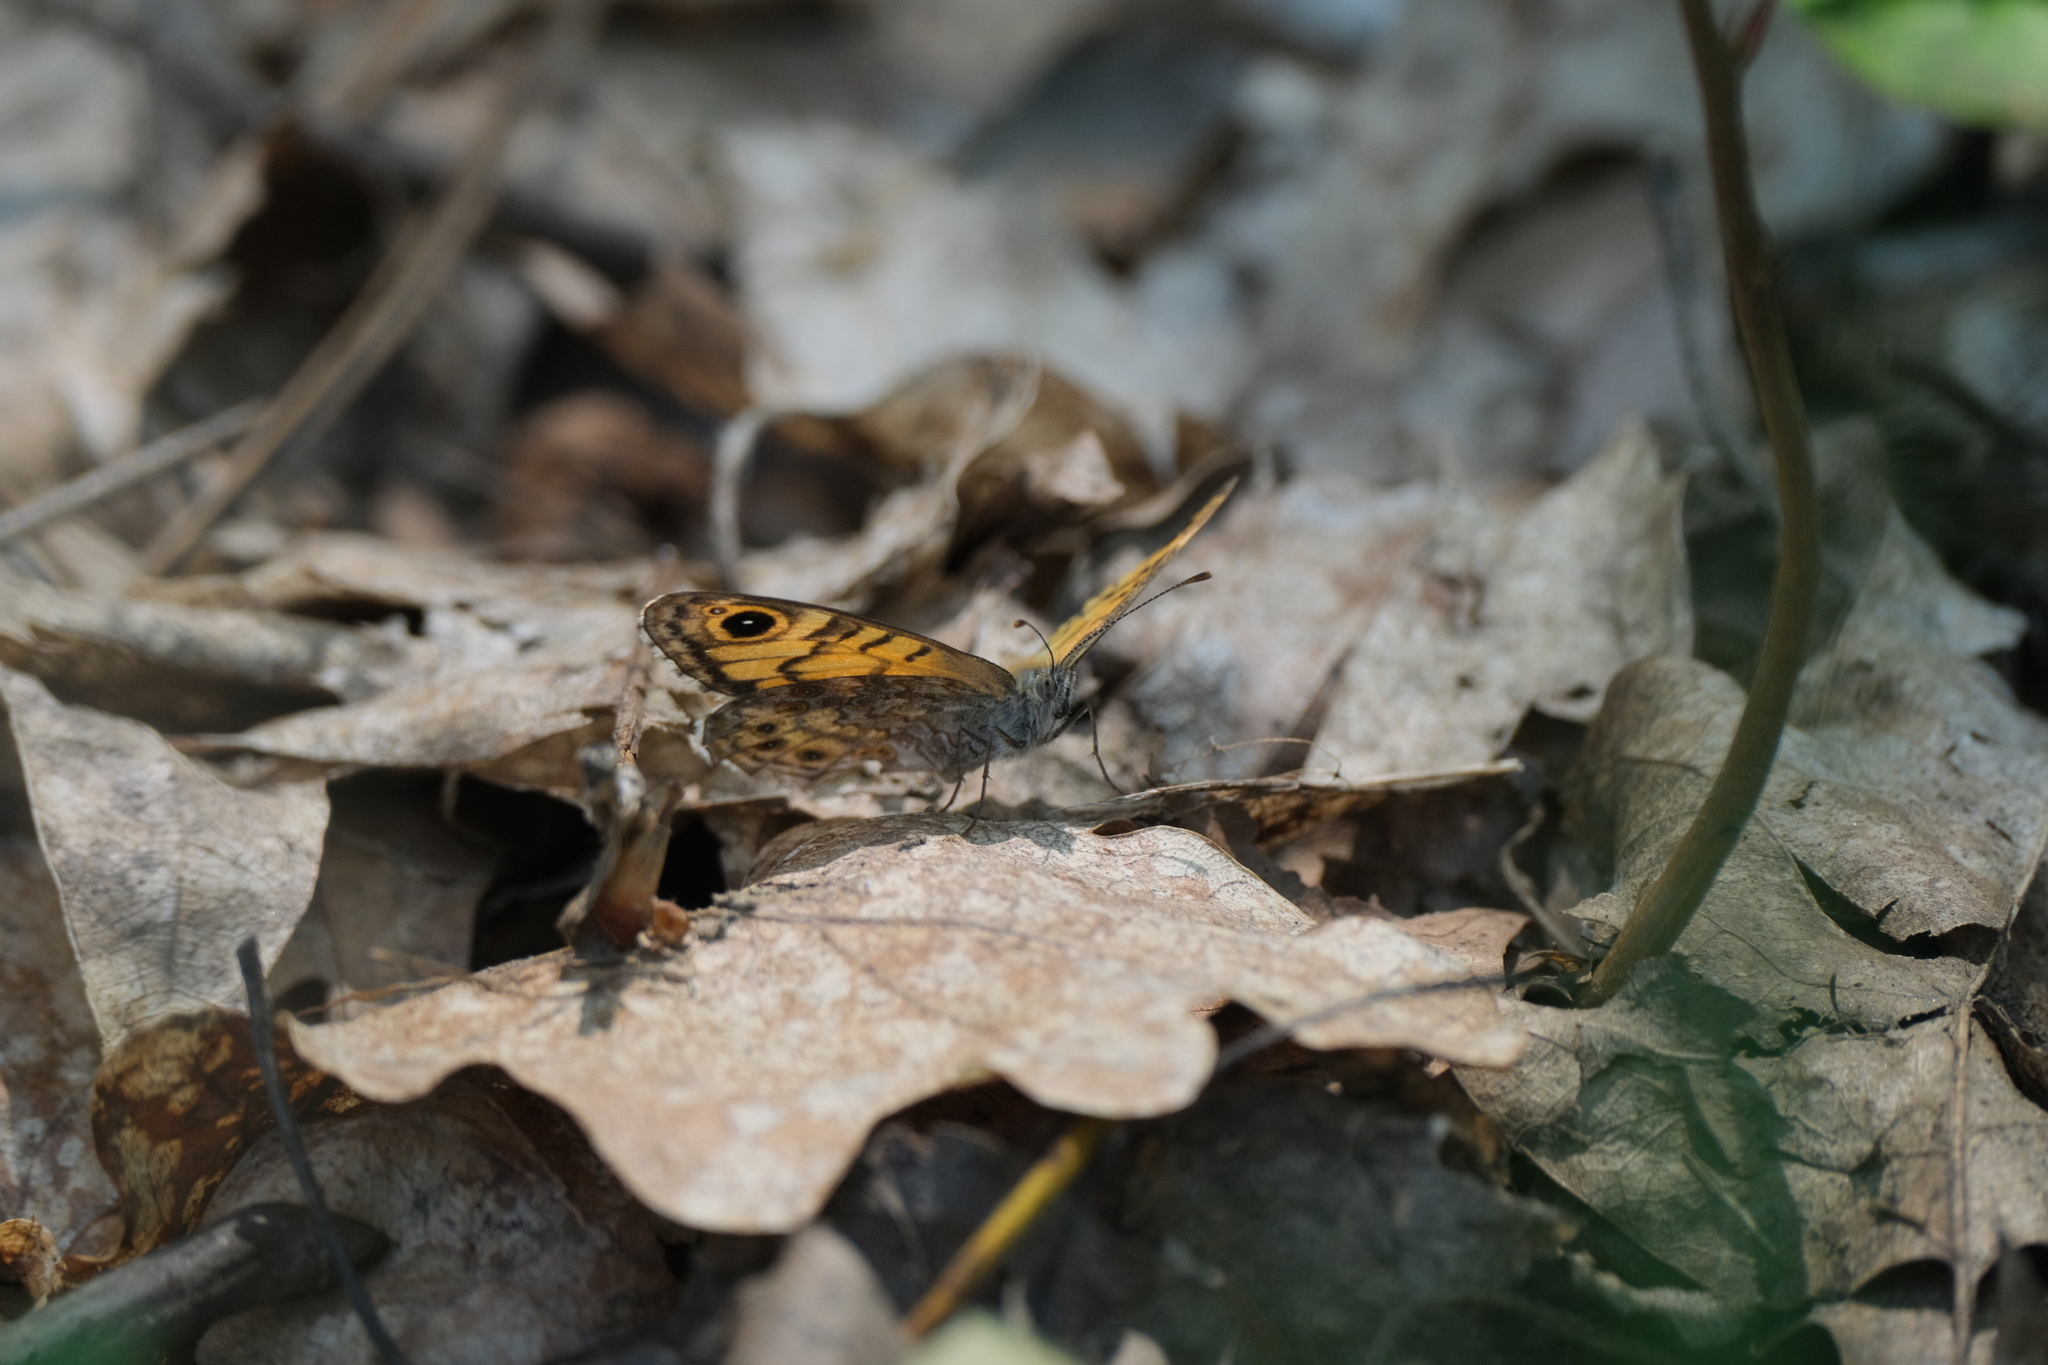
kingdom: Animalia
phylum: Arthropoda
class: Insecta
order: Lepidoptera
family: Nymphalidae
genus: Pararge
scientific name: Pararge Lasiommata maera
